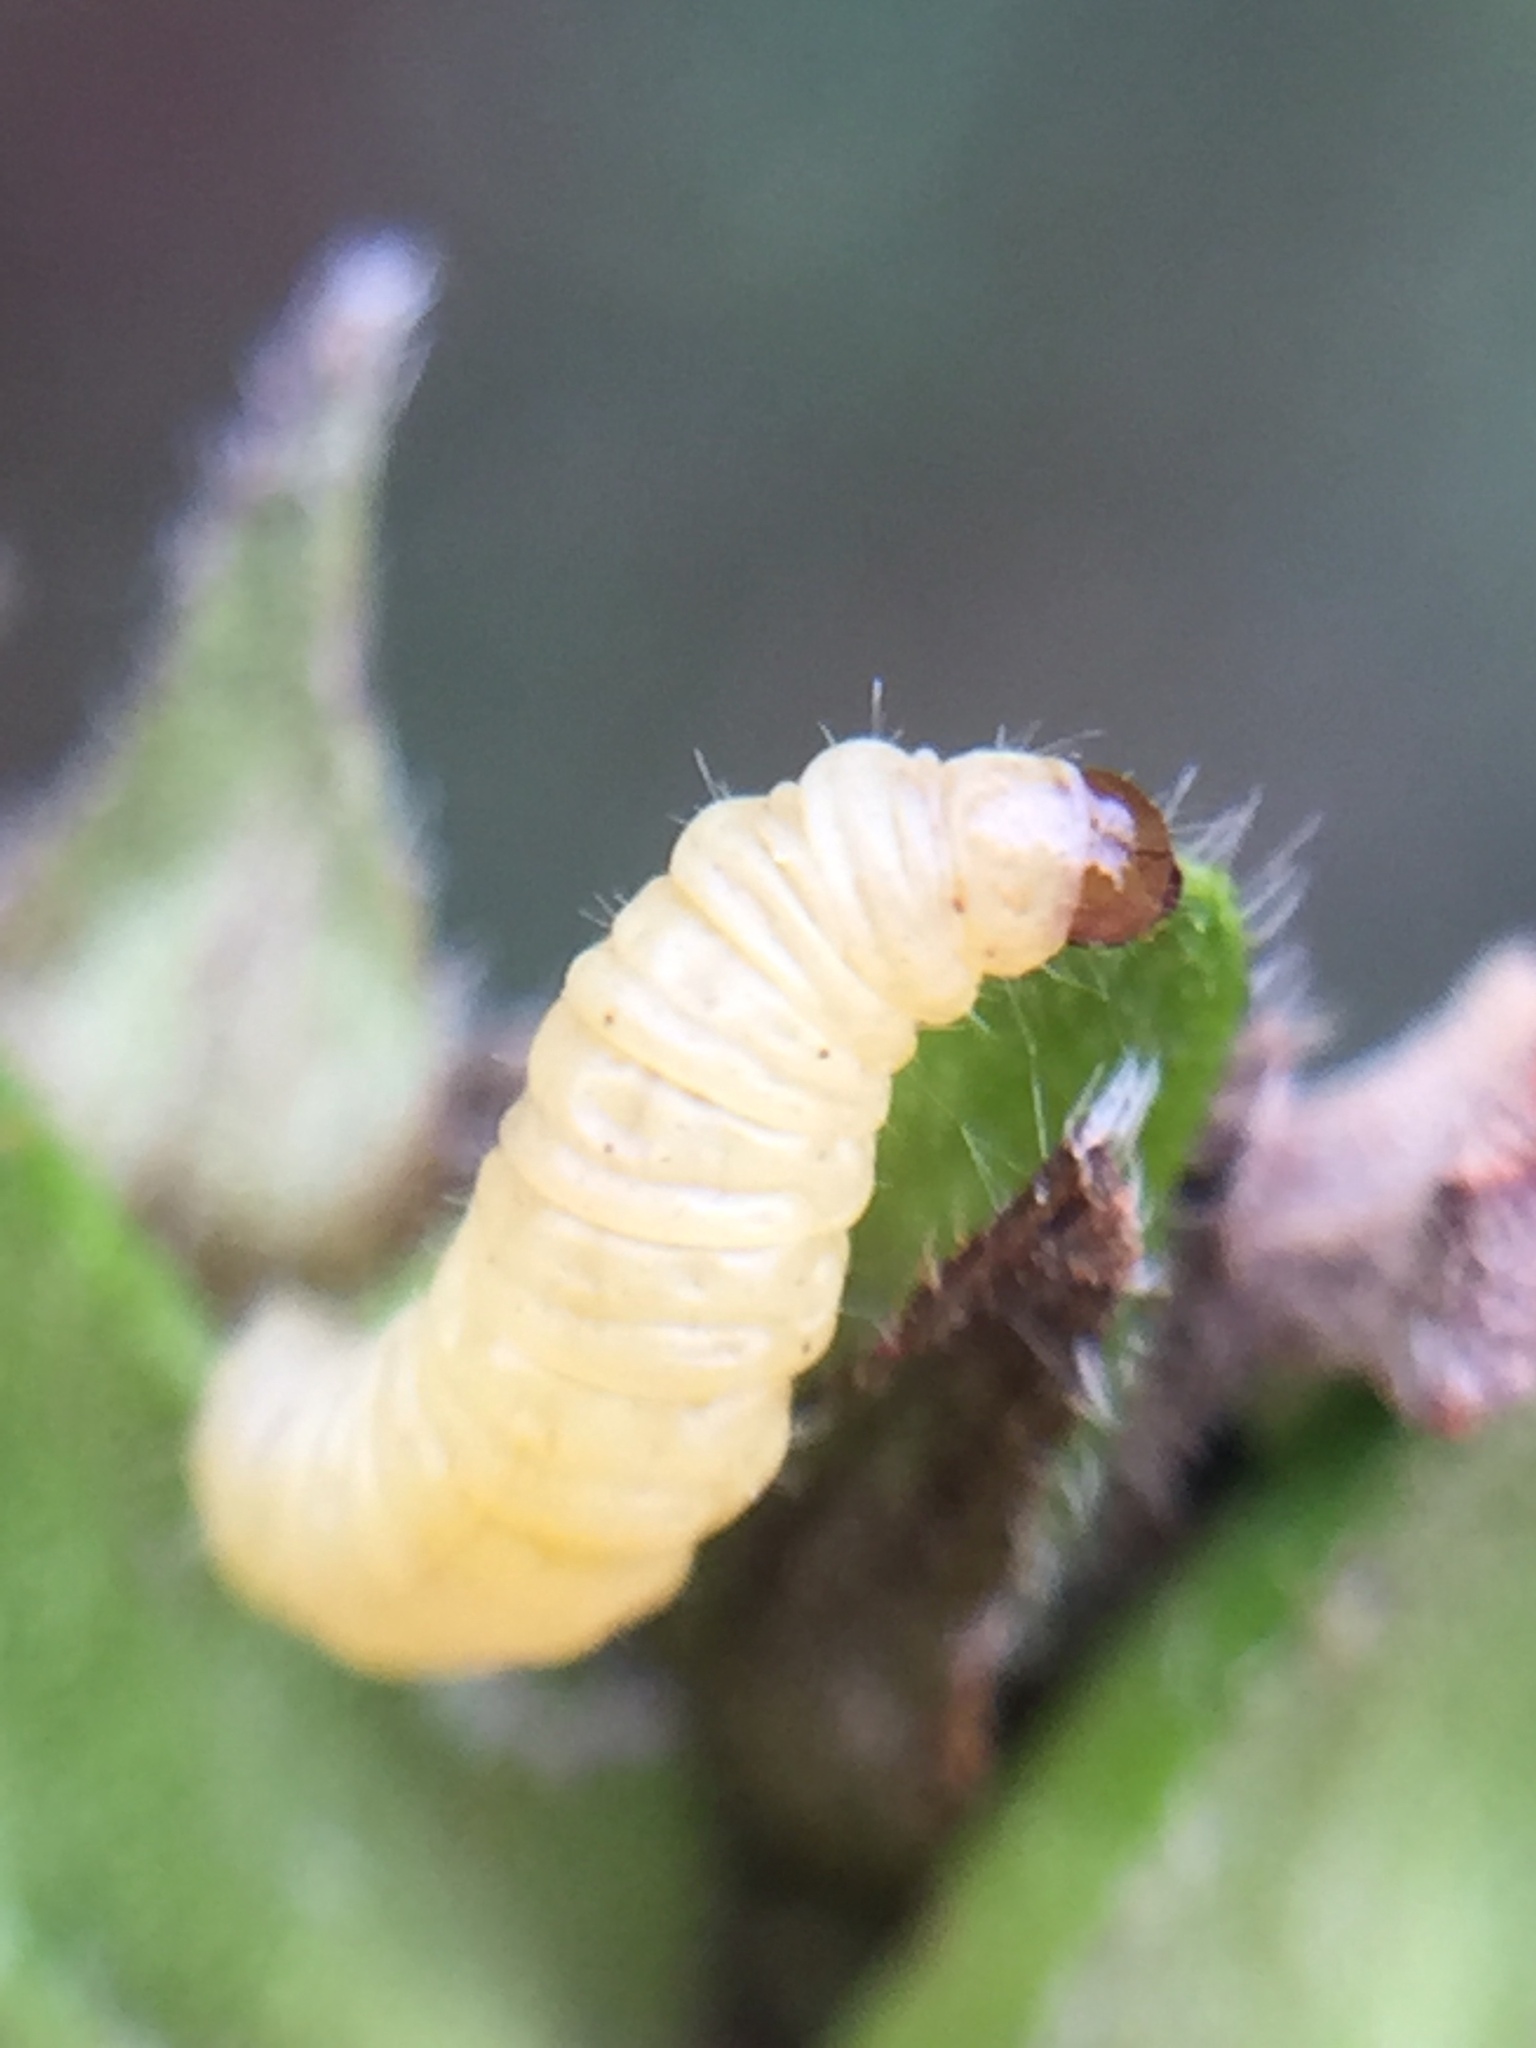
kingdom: Animalia
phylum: Arthropoda
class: Insecta
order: Lepidoptera
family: Pterophoridae
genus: Lantanophaga
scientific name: Lantanophaga pusillidactylus
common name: Moth
